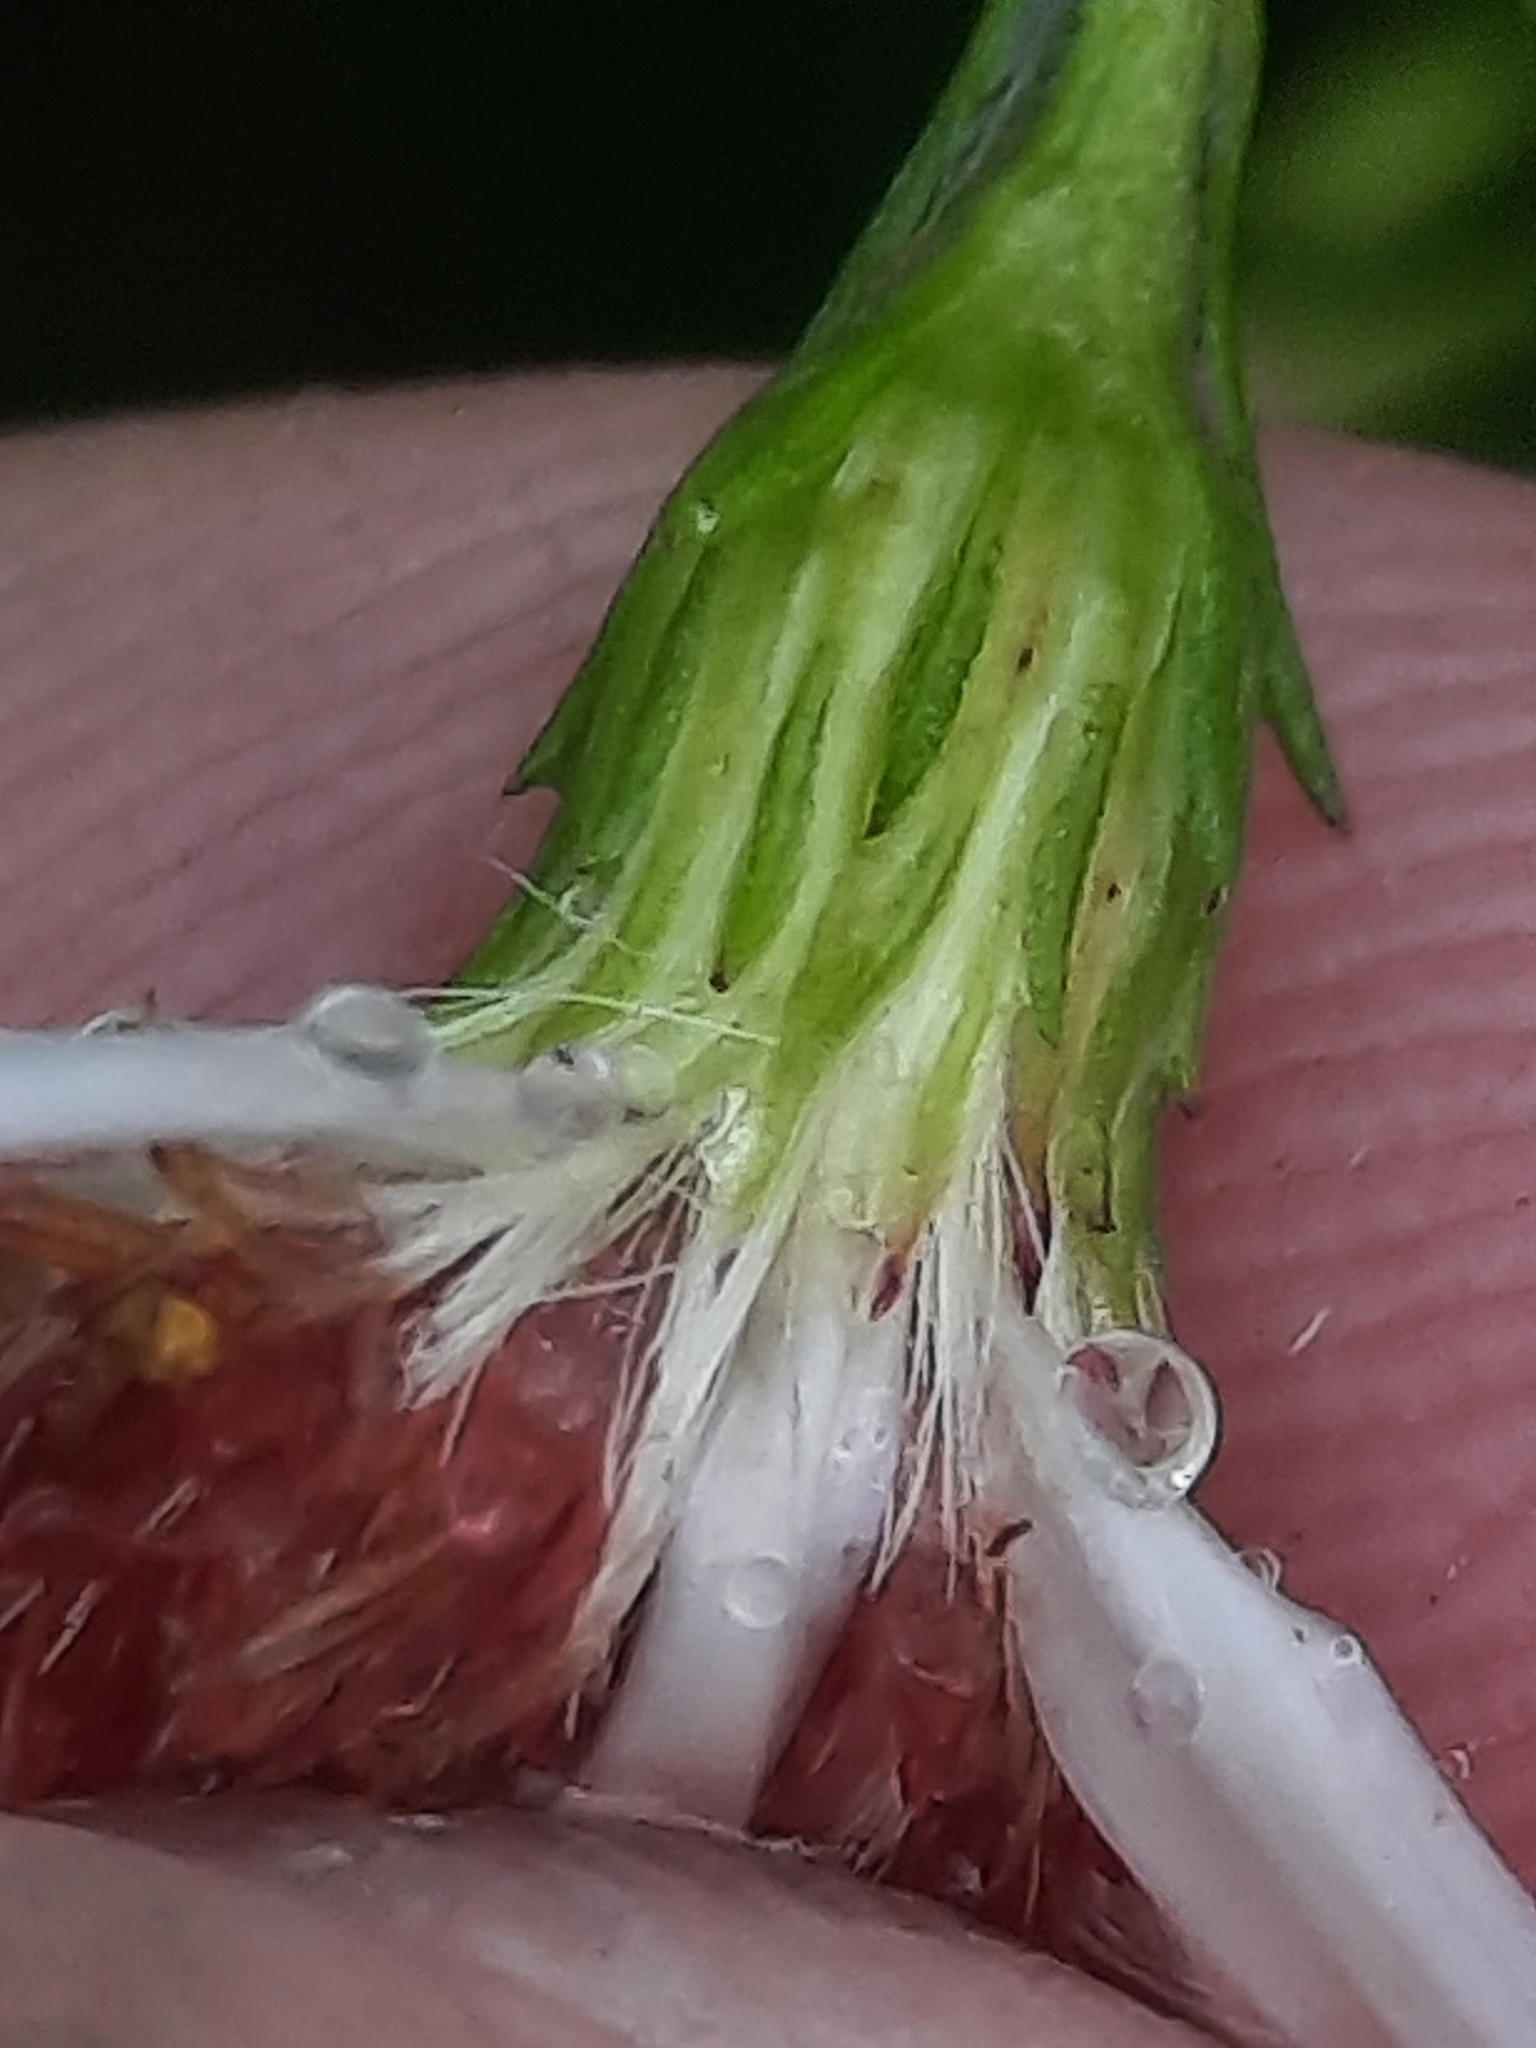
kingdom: Plantae
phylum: Tracheophyta
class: Magnoliopsida
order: Asterales
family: Asteraceae
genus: Symphyotrichum
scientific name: Symphyotrichum lanceolatum
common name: Panicled aster
